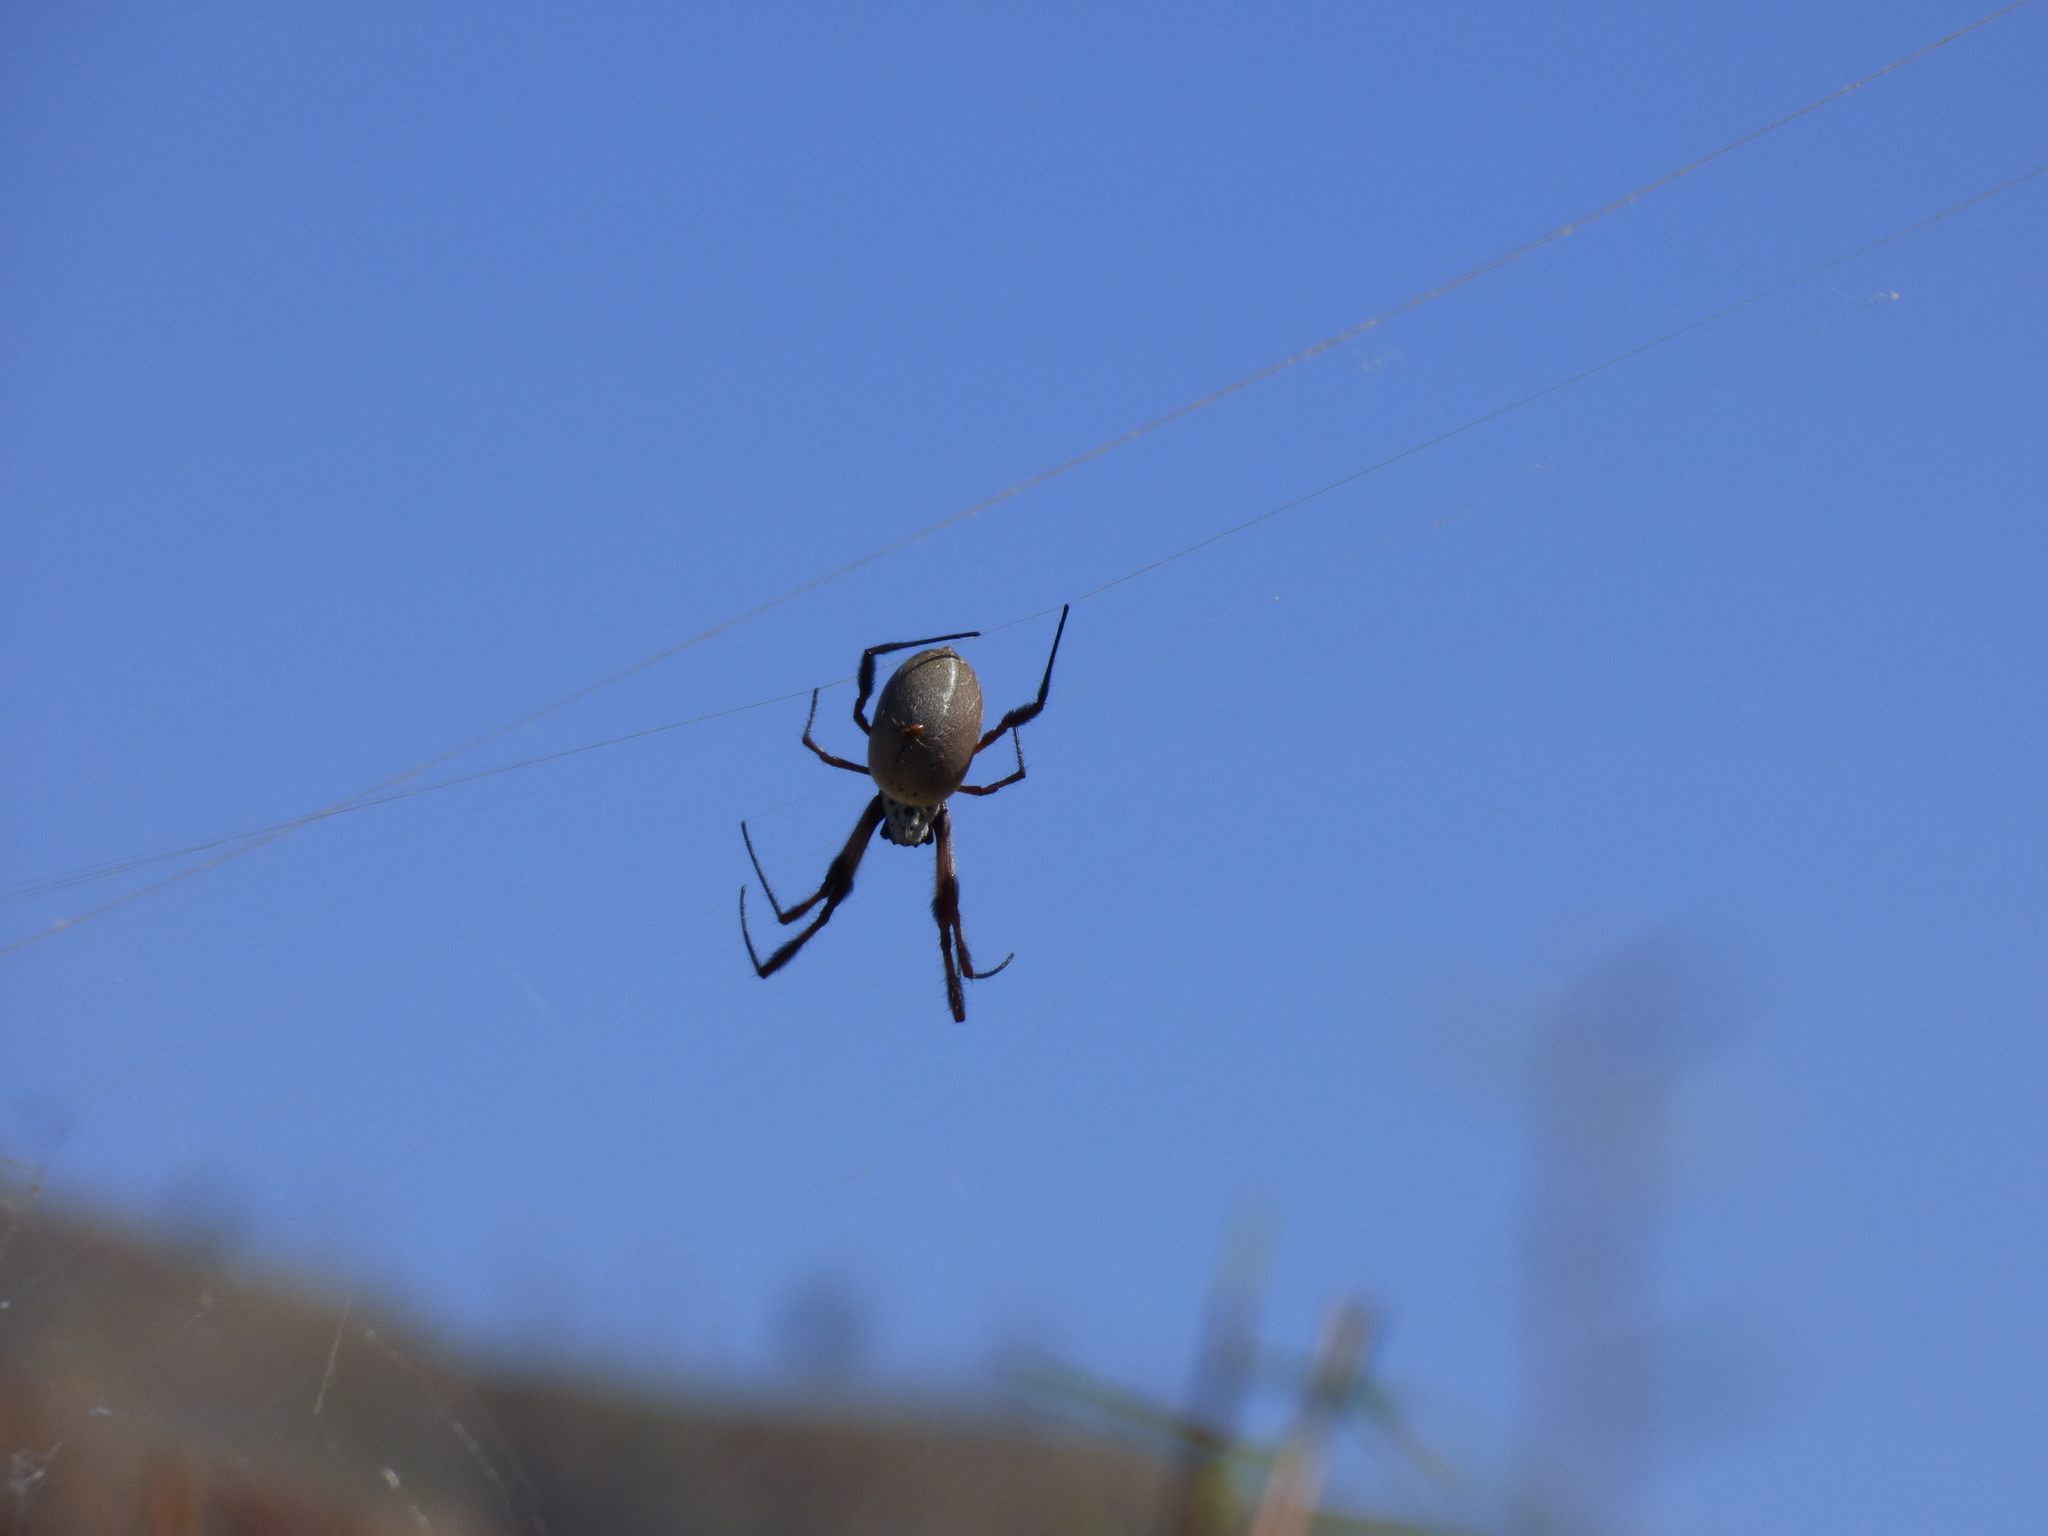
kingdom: Animalia
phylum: Arthropoda
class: Arachnida
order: Araneae
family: Araneidae
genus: Trichonephila
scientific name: Trichonephila edulis
